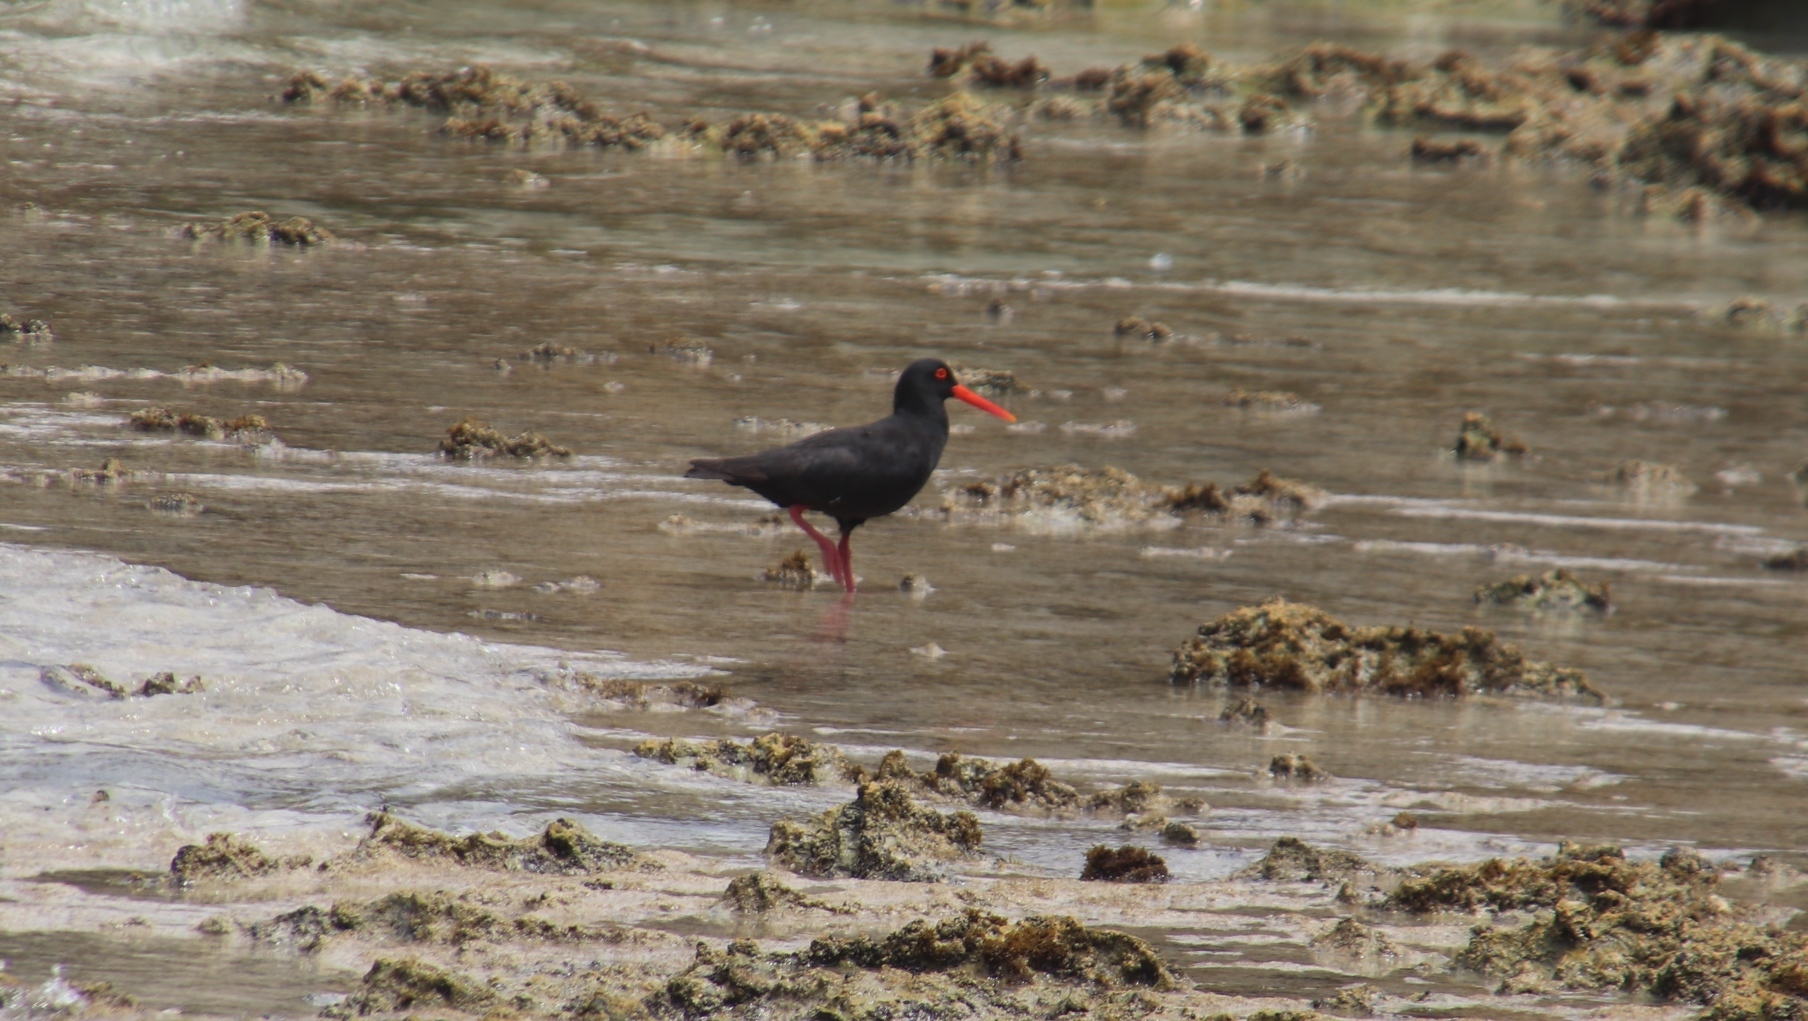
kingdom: Animalia
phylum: Chordata
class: Aves
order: Charadriiformes
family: Haematopodidae
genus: Haematopus
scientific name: Haematopus moquini
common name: African oystercatcher
